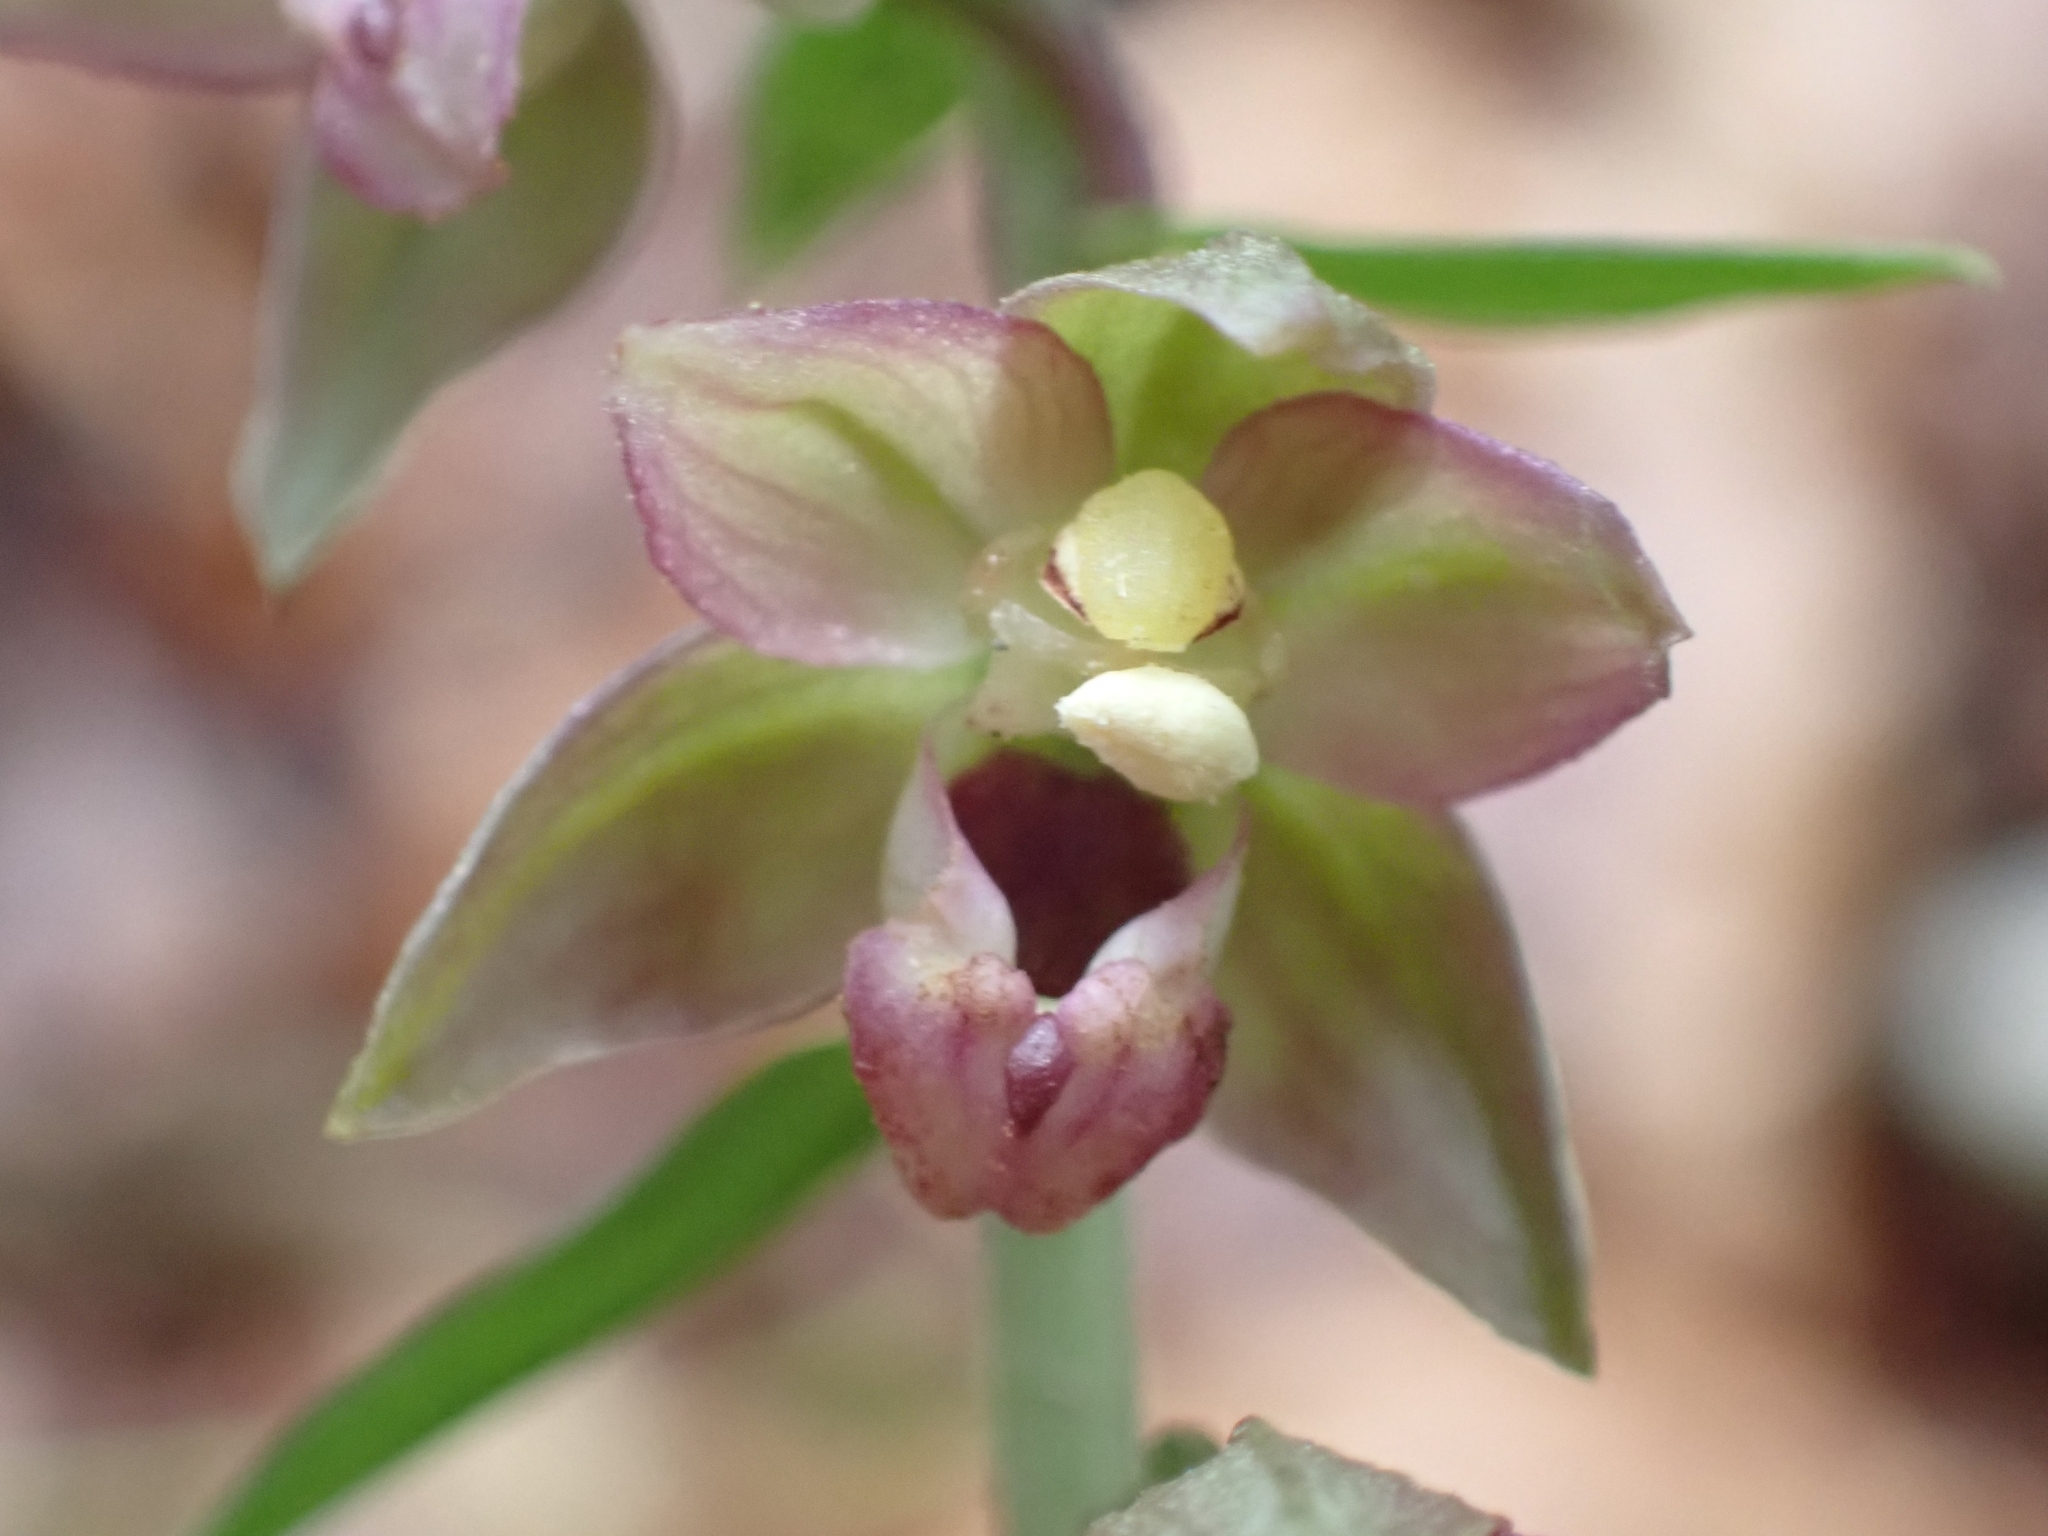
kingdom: Plantae
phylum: Tracheophyta
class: Liliopsida
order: Asparagales
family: Orchidaceae
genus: Epipactis
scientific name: Epipactis helleborine
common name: Broad-leaved helleborine
